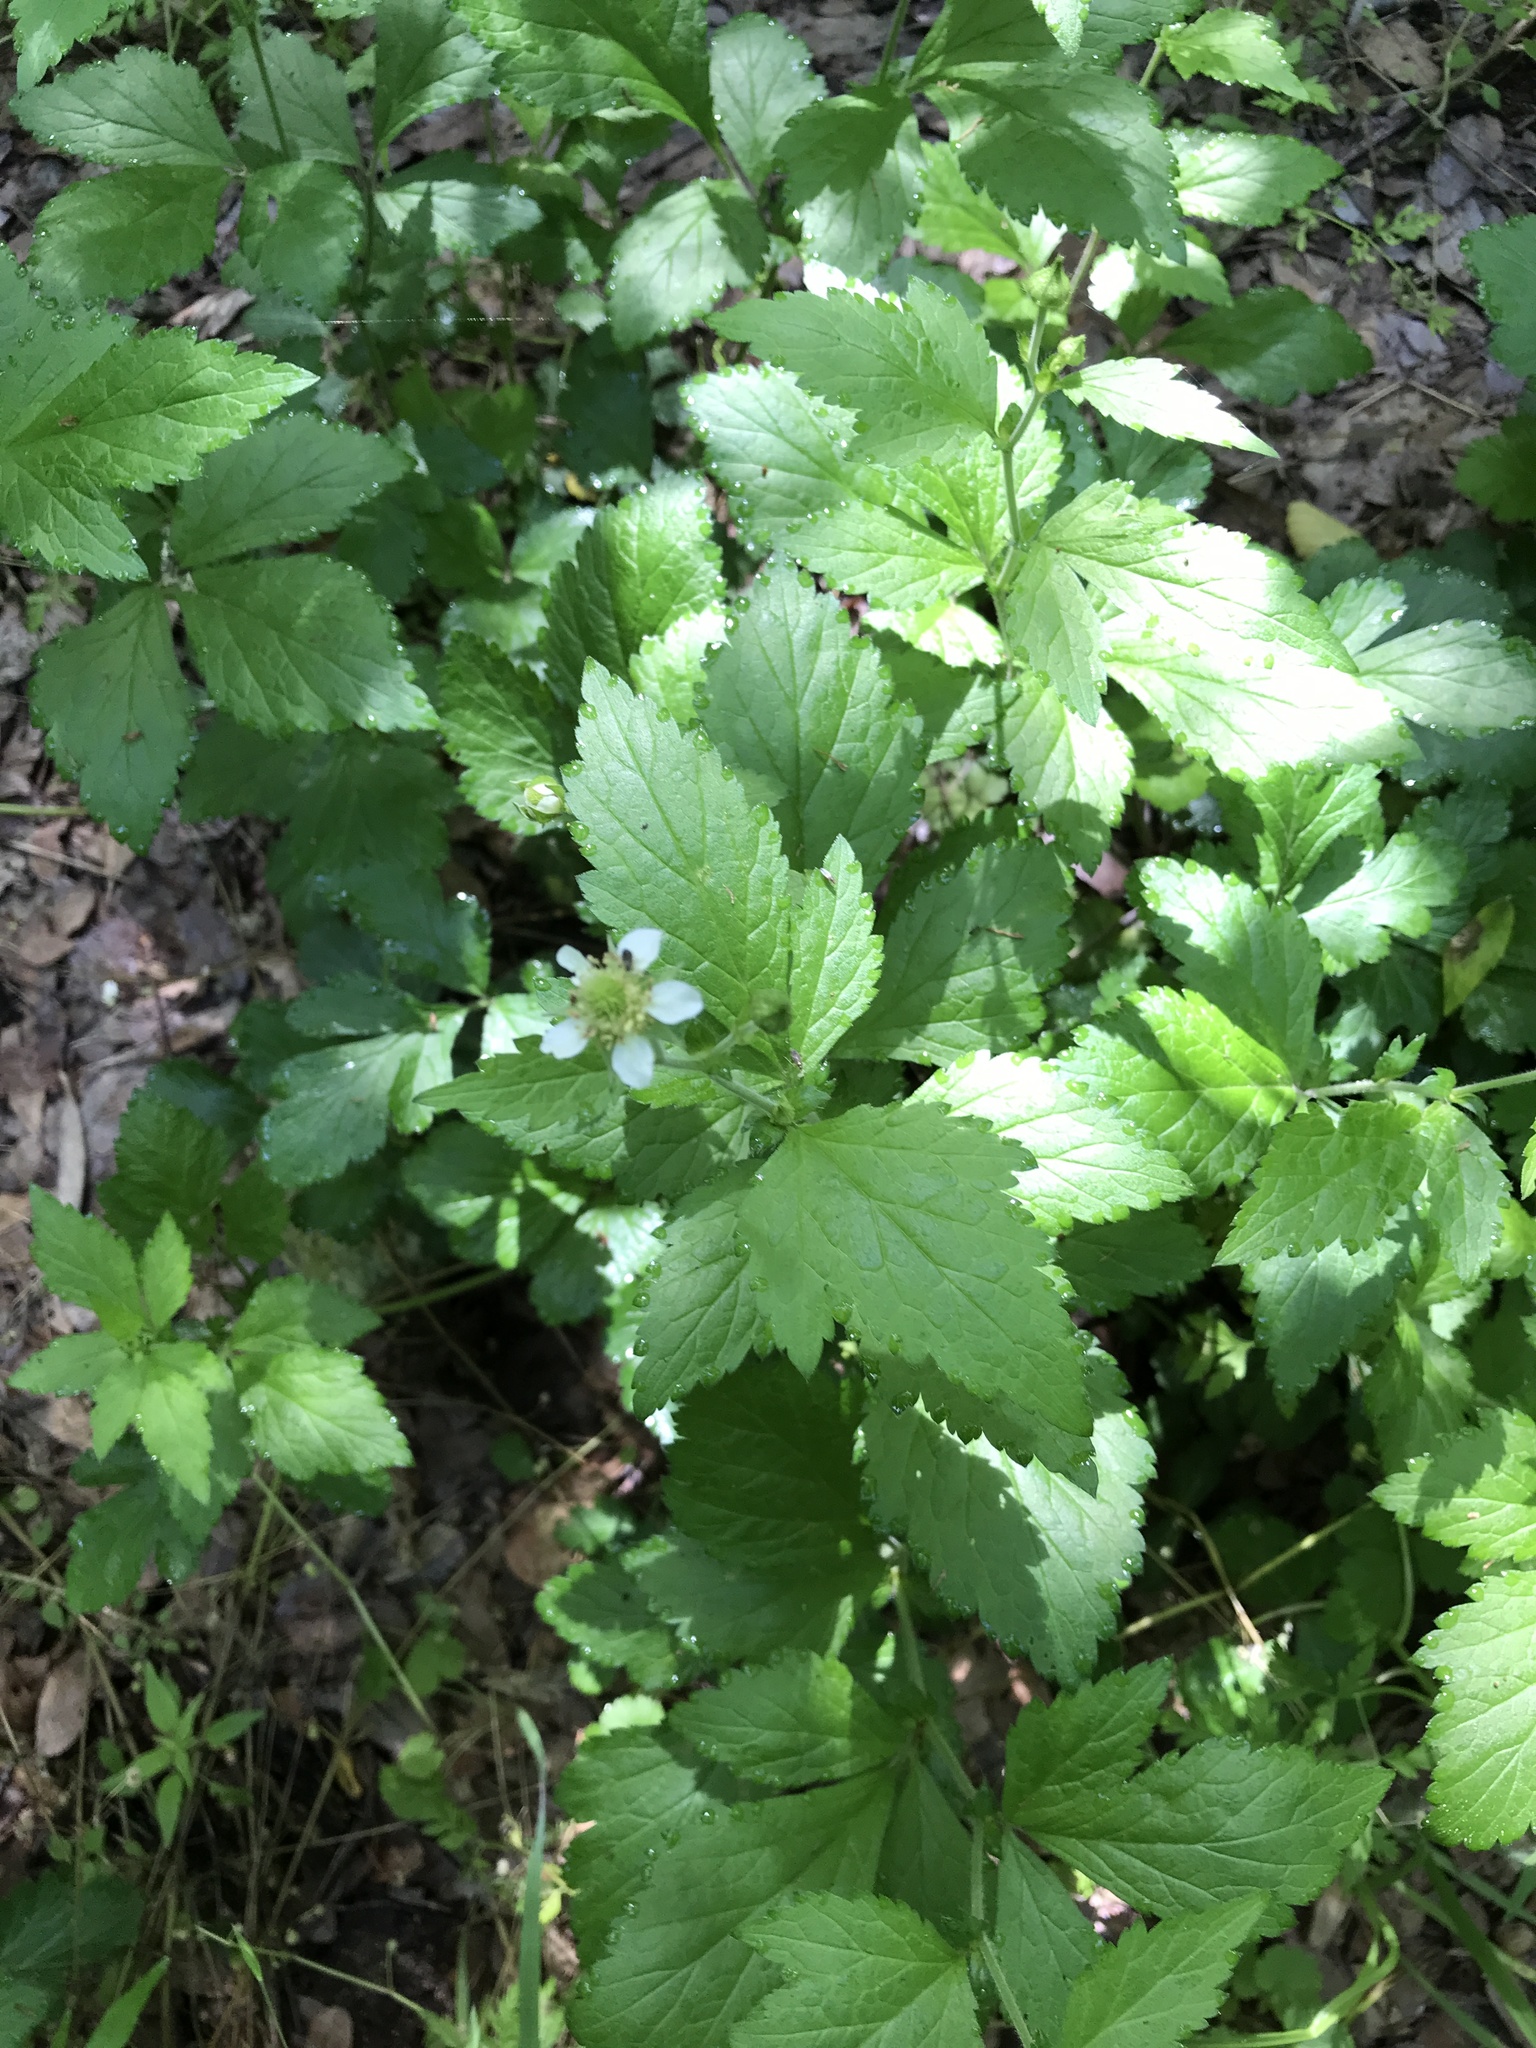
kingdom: Plantae
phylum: Tracheophyta
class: Magnoliopsida
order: Rosales
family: Rosaceae
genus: Geum
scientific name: Geum canadense
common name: White avens
